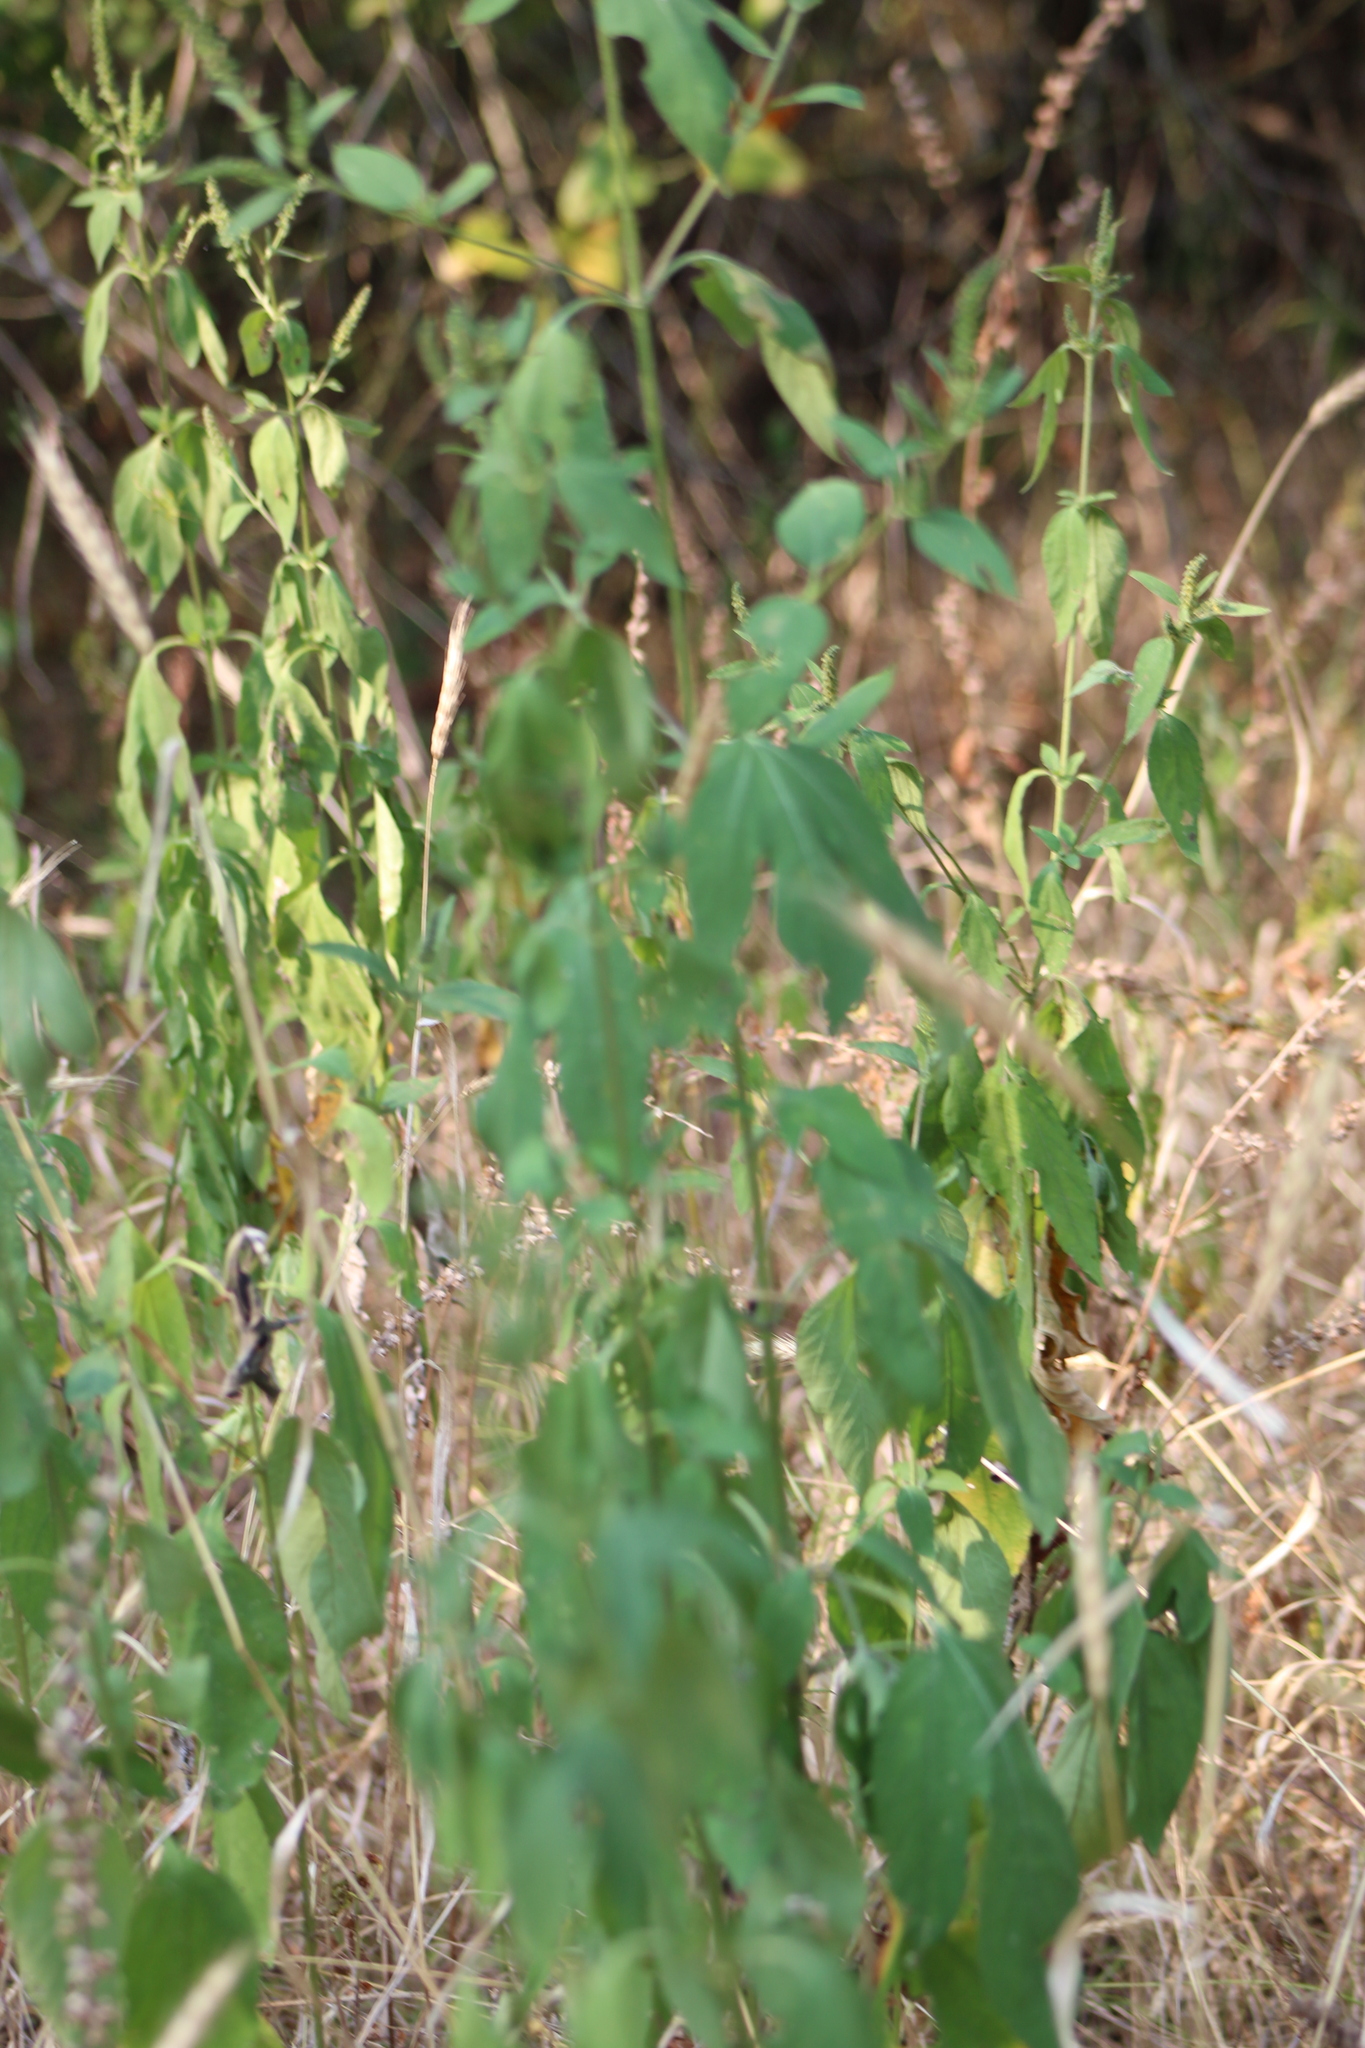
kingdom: Plantae
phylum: Tracheophyta
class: Magnoliopsida
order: Asterales
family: Asteraceae
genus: Ambrosia
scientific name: Ambrosia trifida
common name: Giant ragweed
